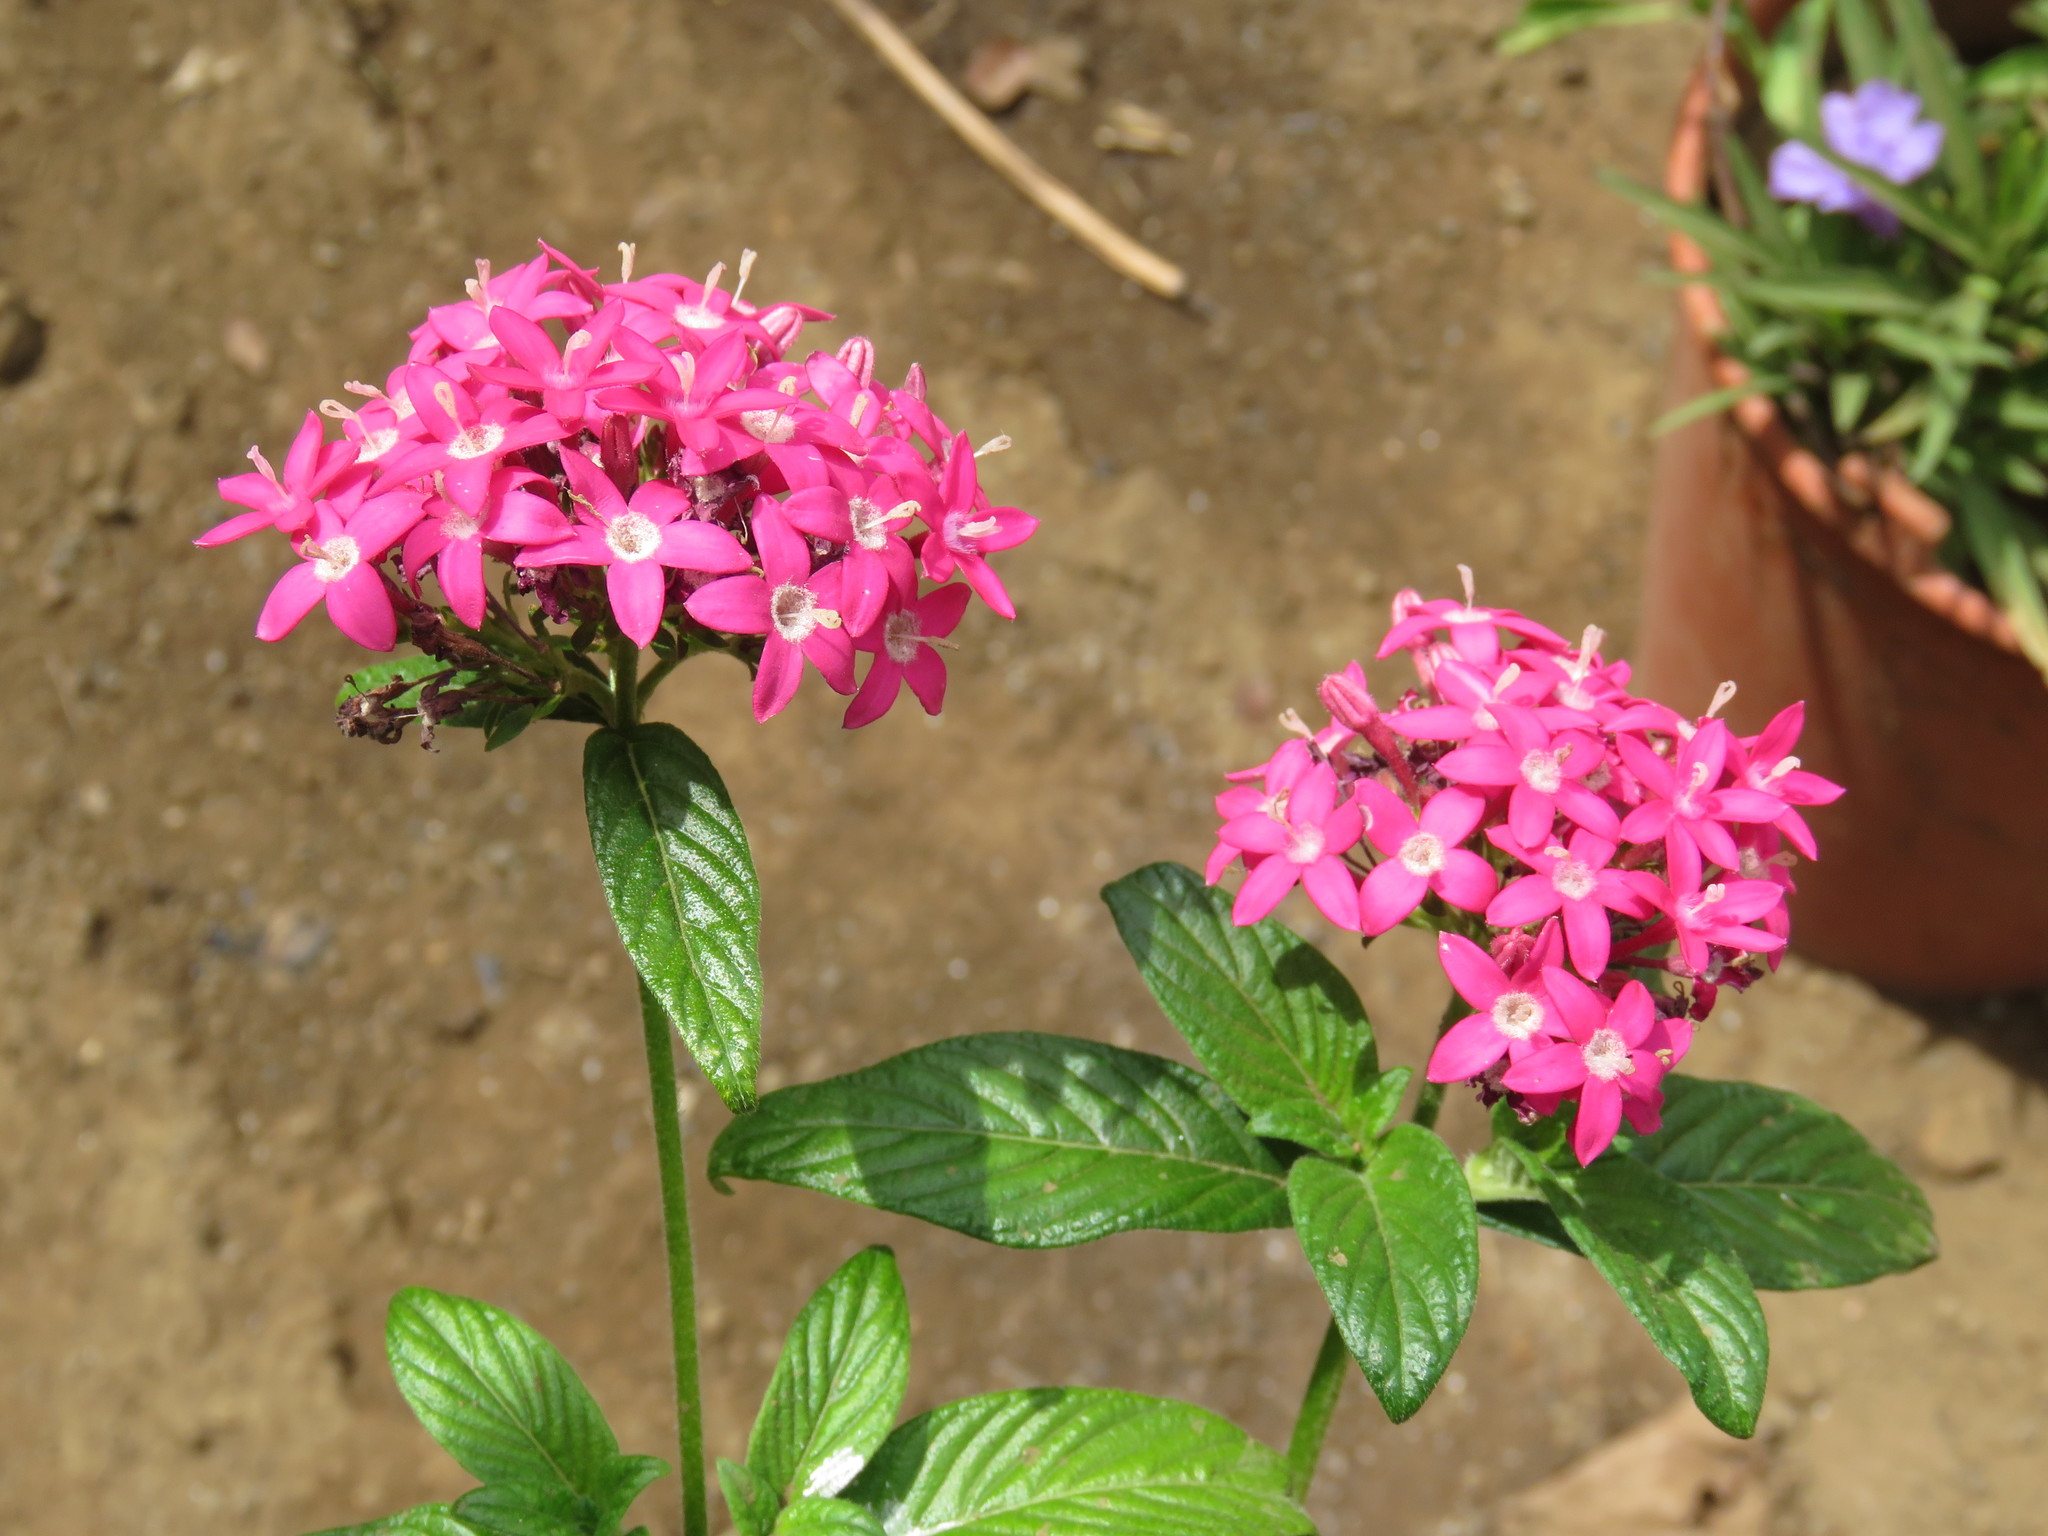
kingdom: Plantae
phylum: Tracheophyta
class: Magnoliopsida
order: Gentianales
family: Rubiaceae
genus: Pentas
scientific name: Pentas lanceolata
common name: Egyptian starcluster
